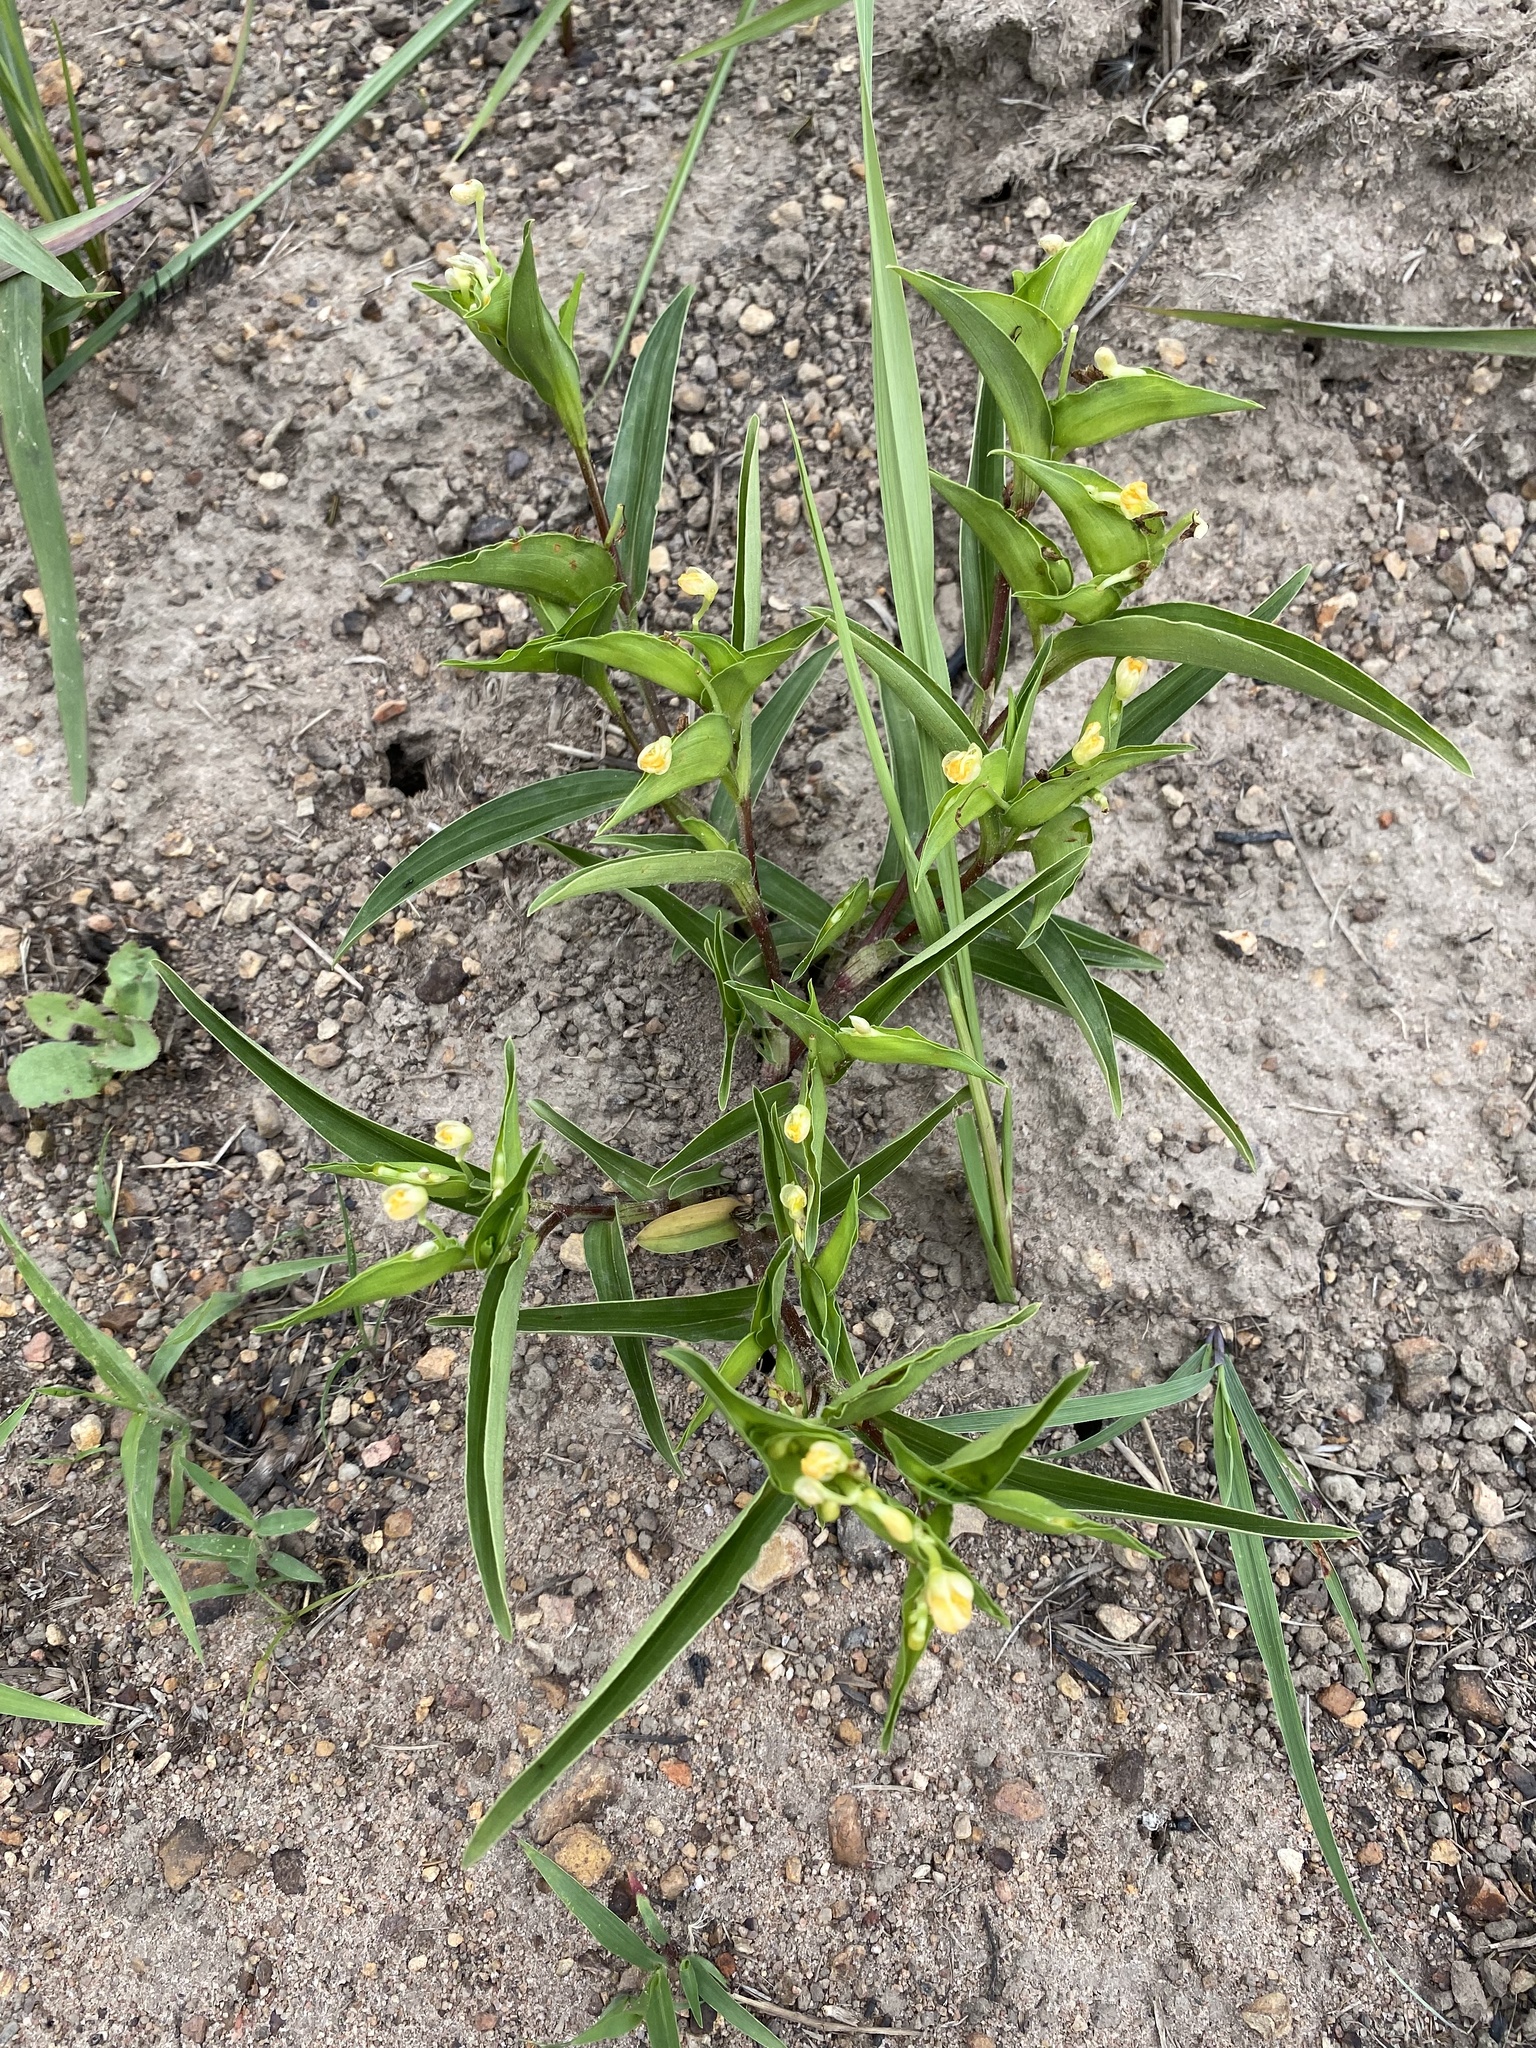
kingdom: Plantae
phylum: Tracheophyta
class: Liliopsida
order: Commelinales
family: Commelinaceae
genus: Commelina
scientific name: Commelina africana
